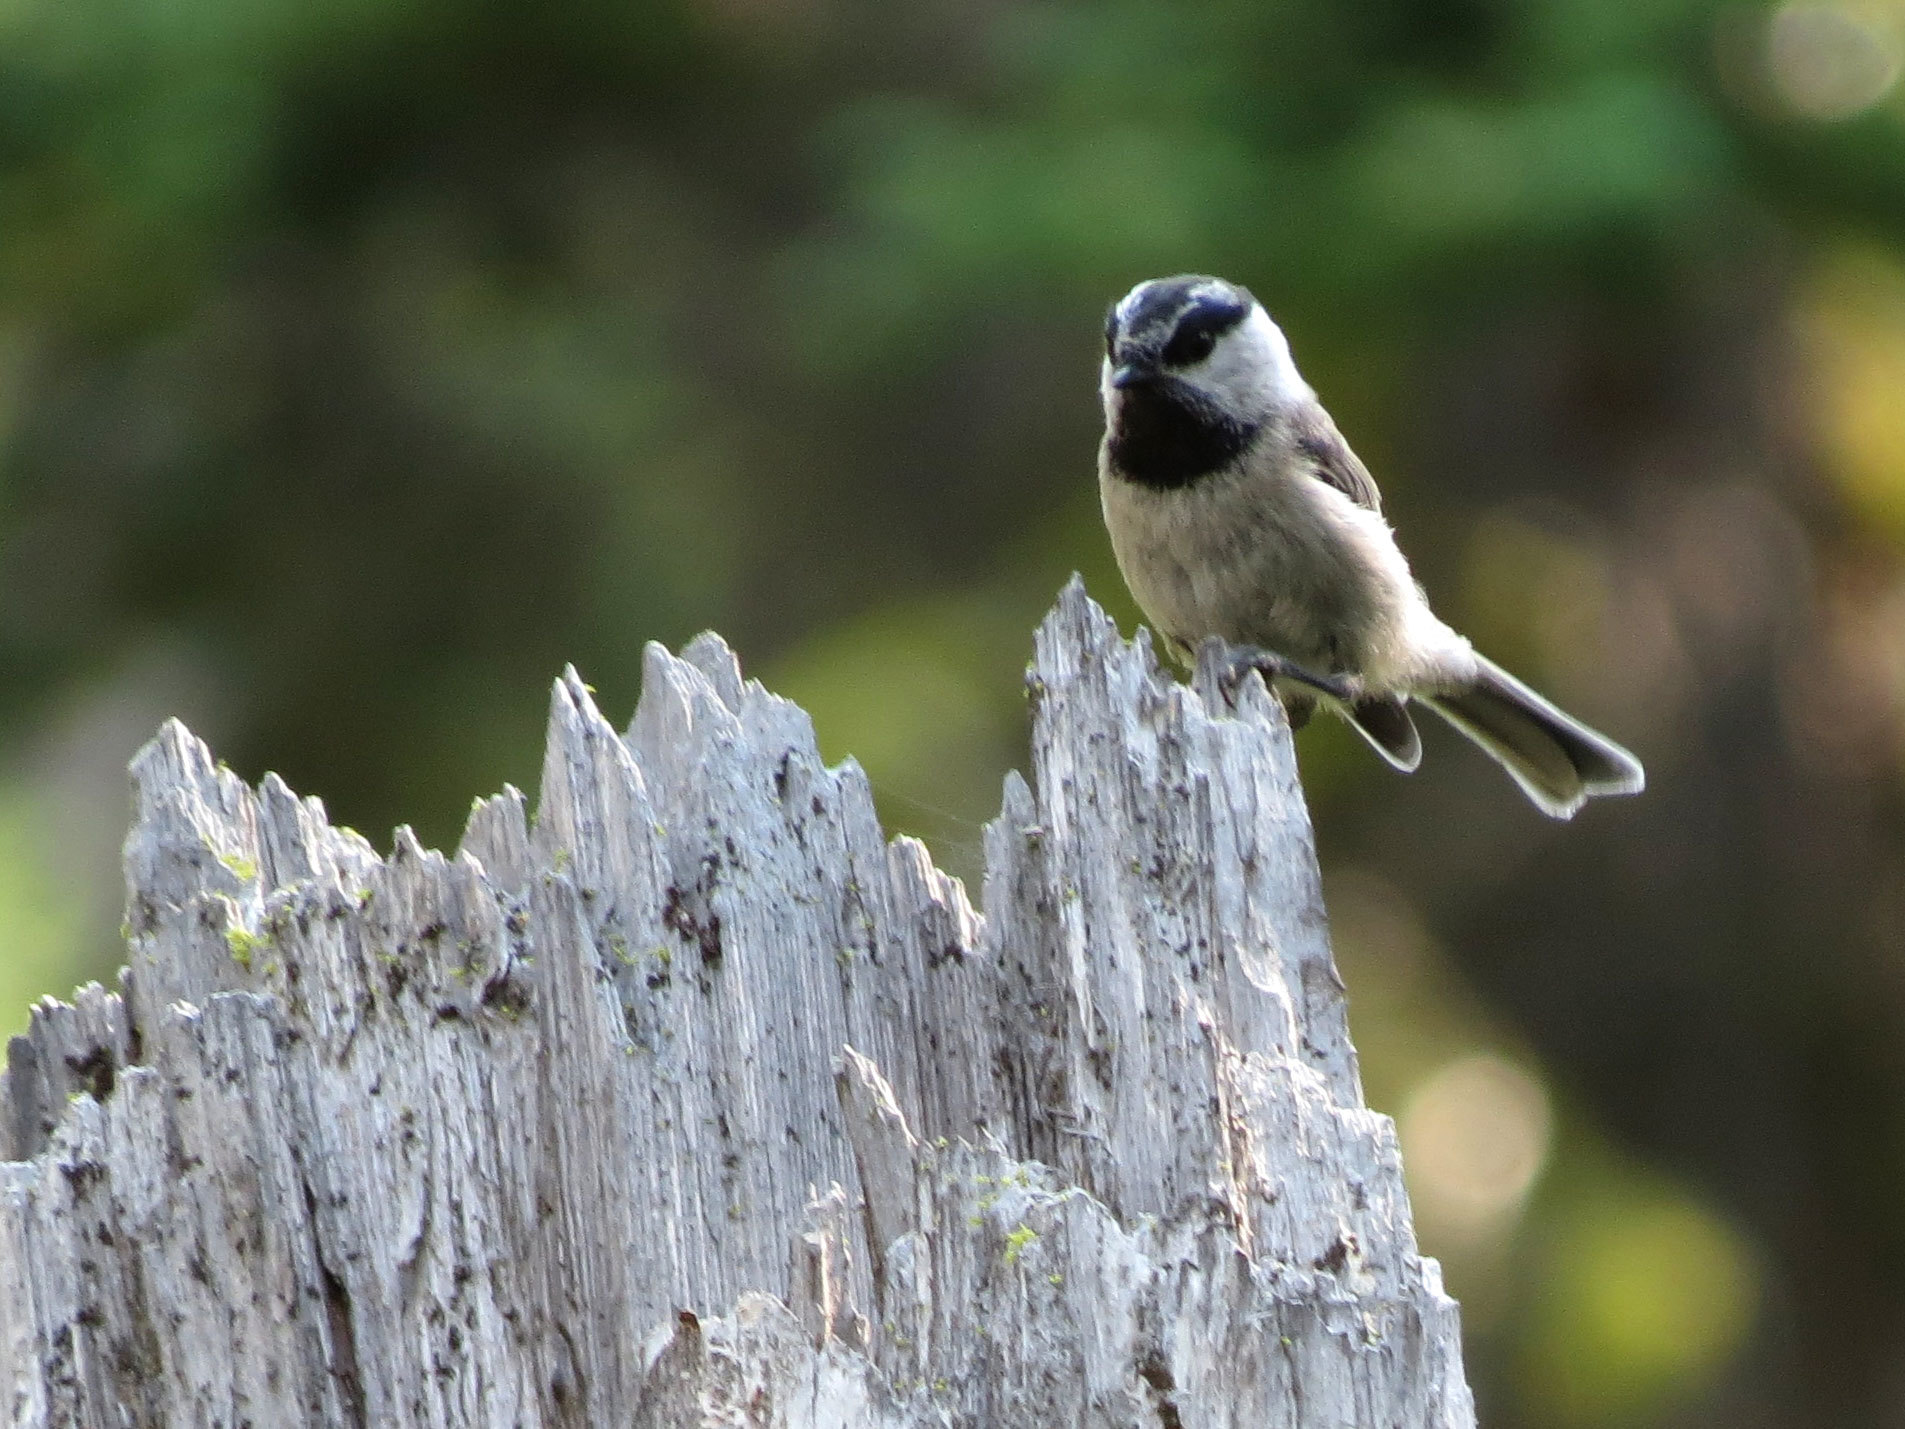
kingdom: Animalia
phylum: Chordata
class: Aves
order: Passeriformes
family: Paridae
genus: Poecile
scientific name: Poecile gambeli
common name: Mountain chickadee
